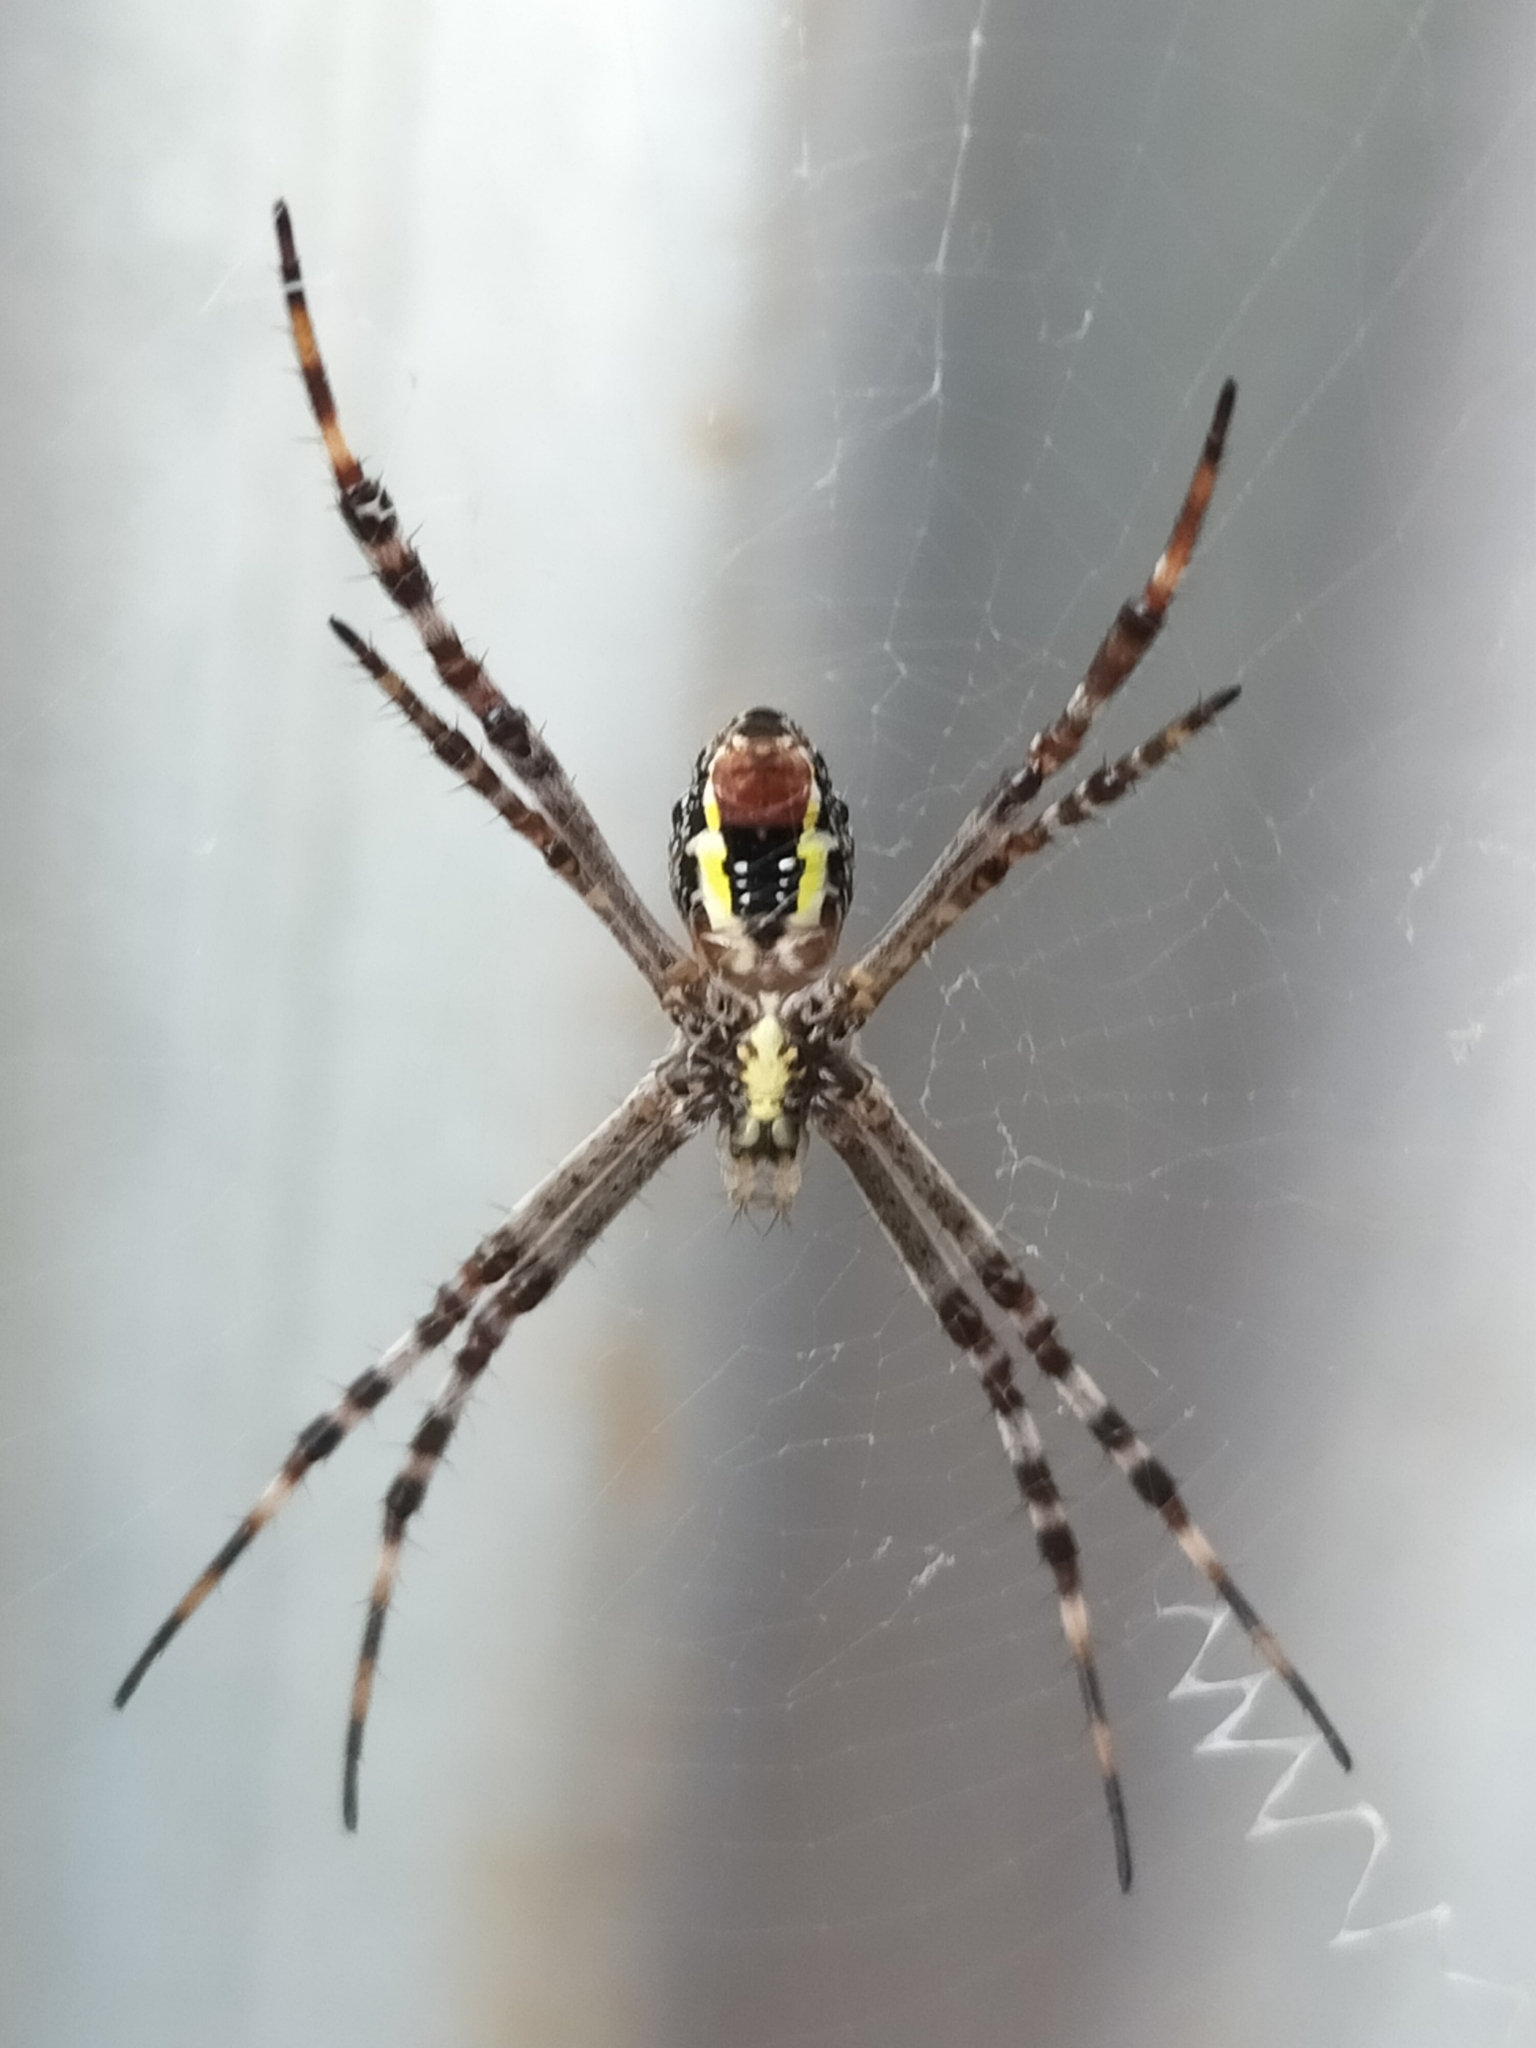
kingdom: Animalia
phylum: Arthropoda
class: Arachnida
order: Araneae
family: Araneidae
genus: Argiope
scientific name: Argiope picta
